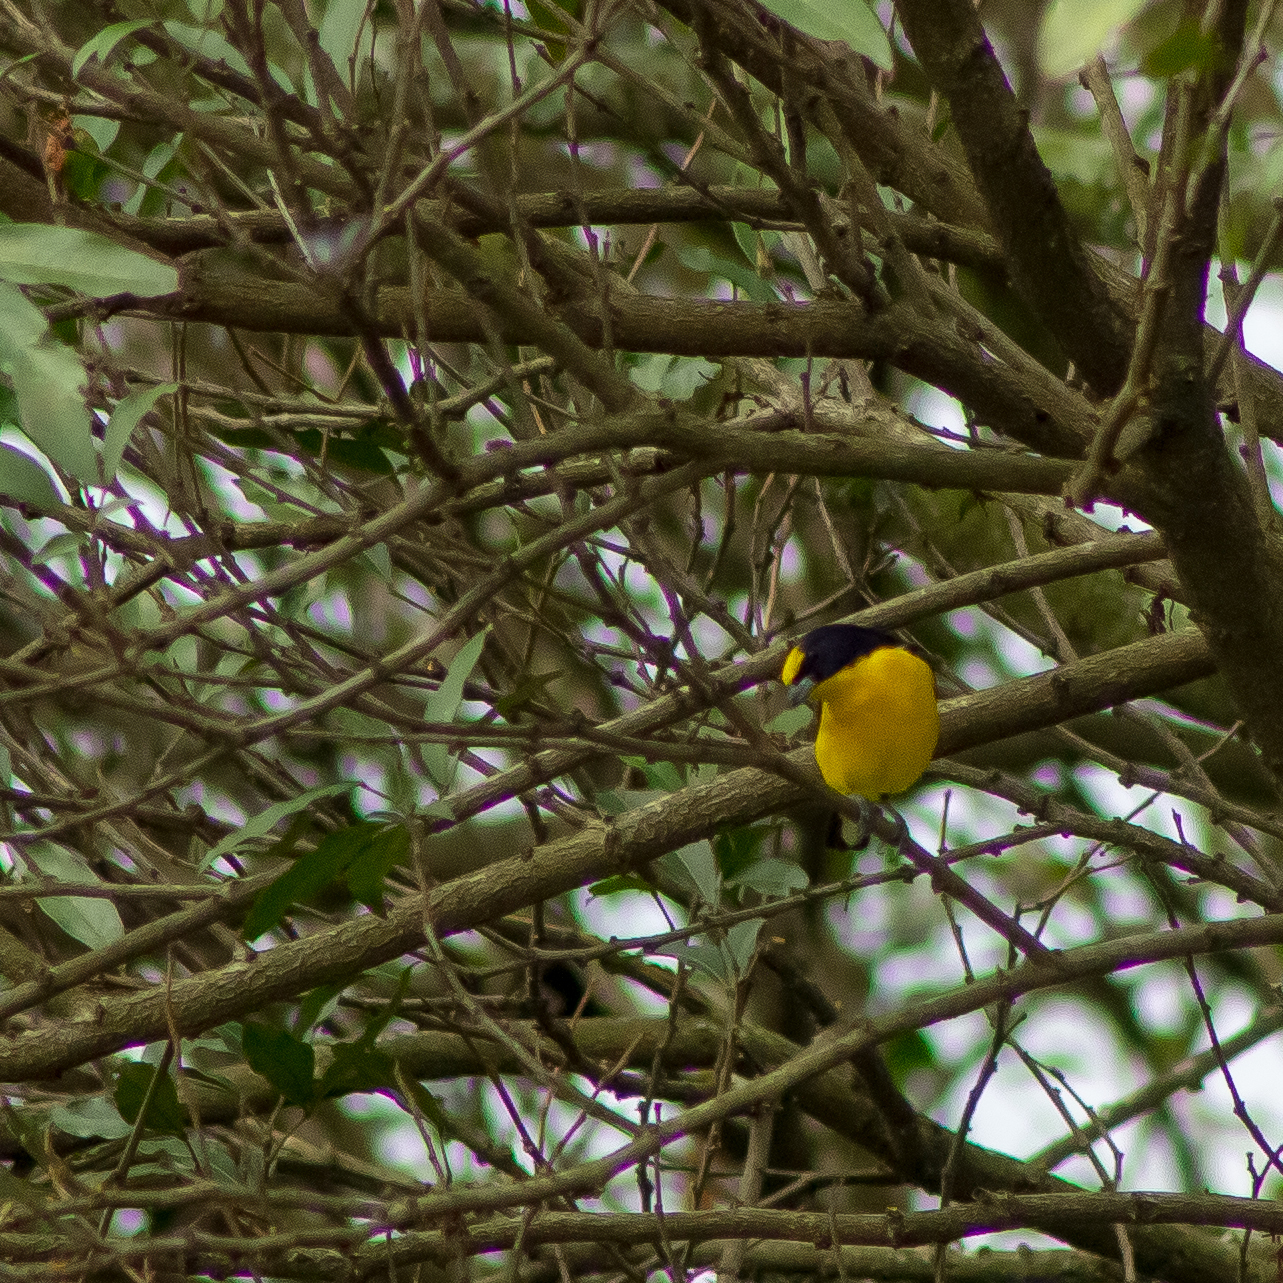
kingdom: Animalia
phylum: Chordata
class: Aves
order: Passeriformes
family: Fringillidae
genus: Euphonia
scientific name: Euphonia laniirostris
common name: Thick-billed euphonia
